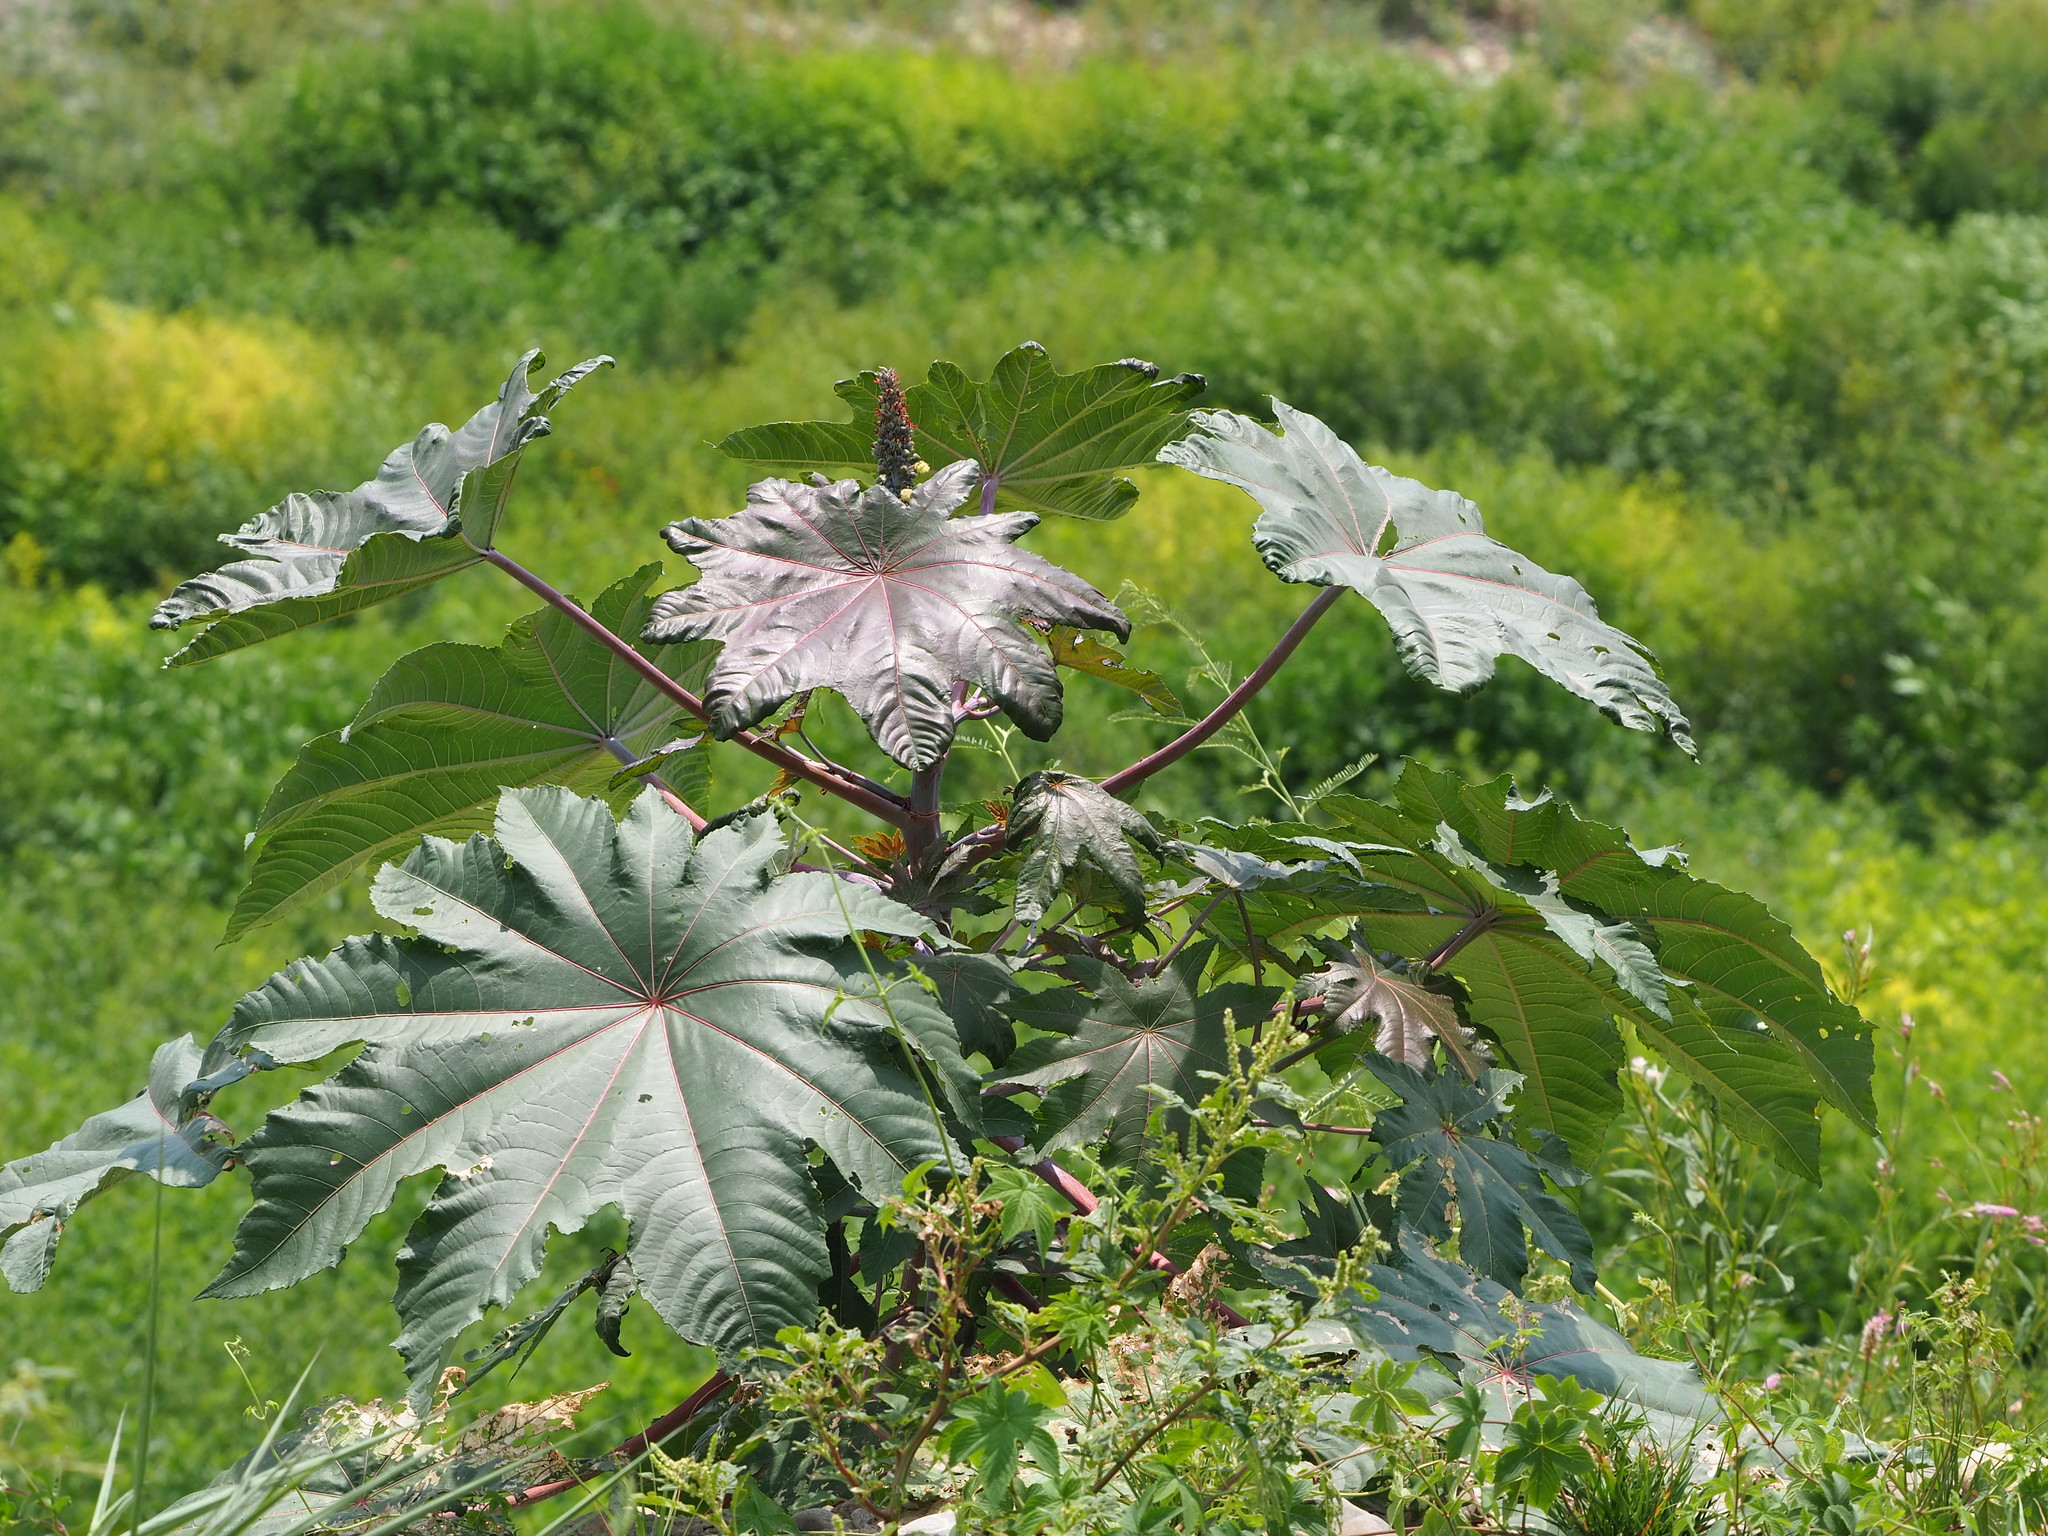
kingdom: Plantae
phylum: Tracheophyta
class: Magnoliopsida
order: Malpighiales
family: Euphorbiaceae
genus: Ricinus
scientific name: Ricinus communis
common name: Castor-oil-plant
